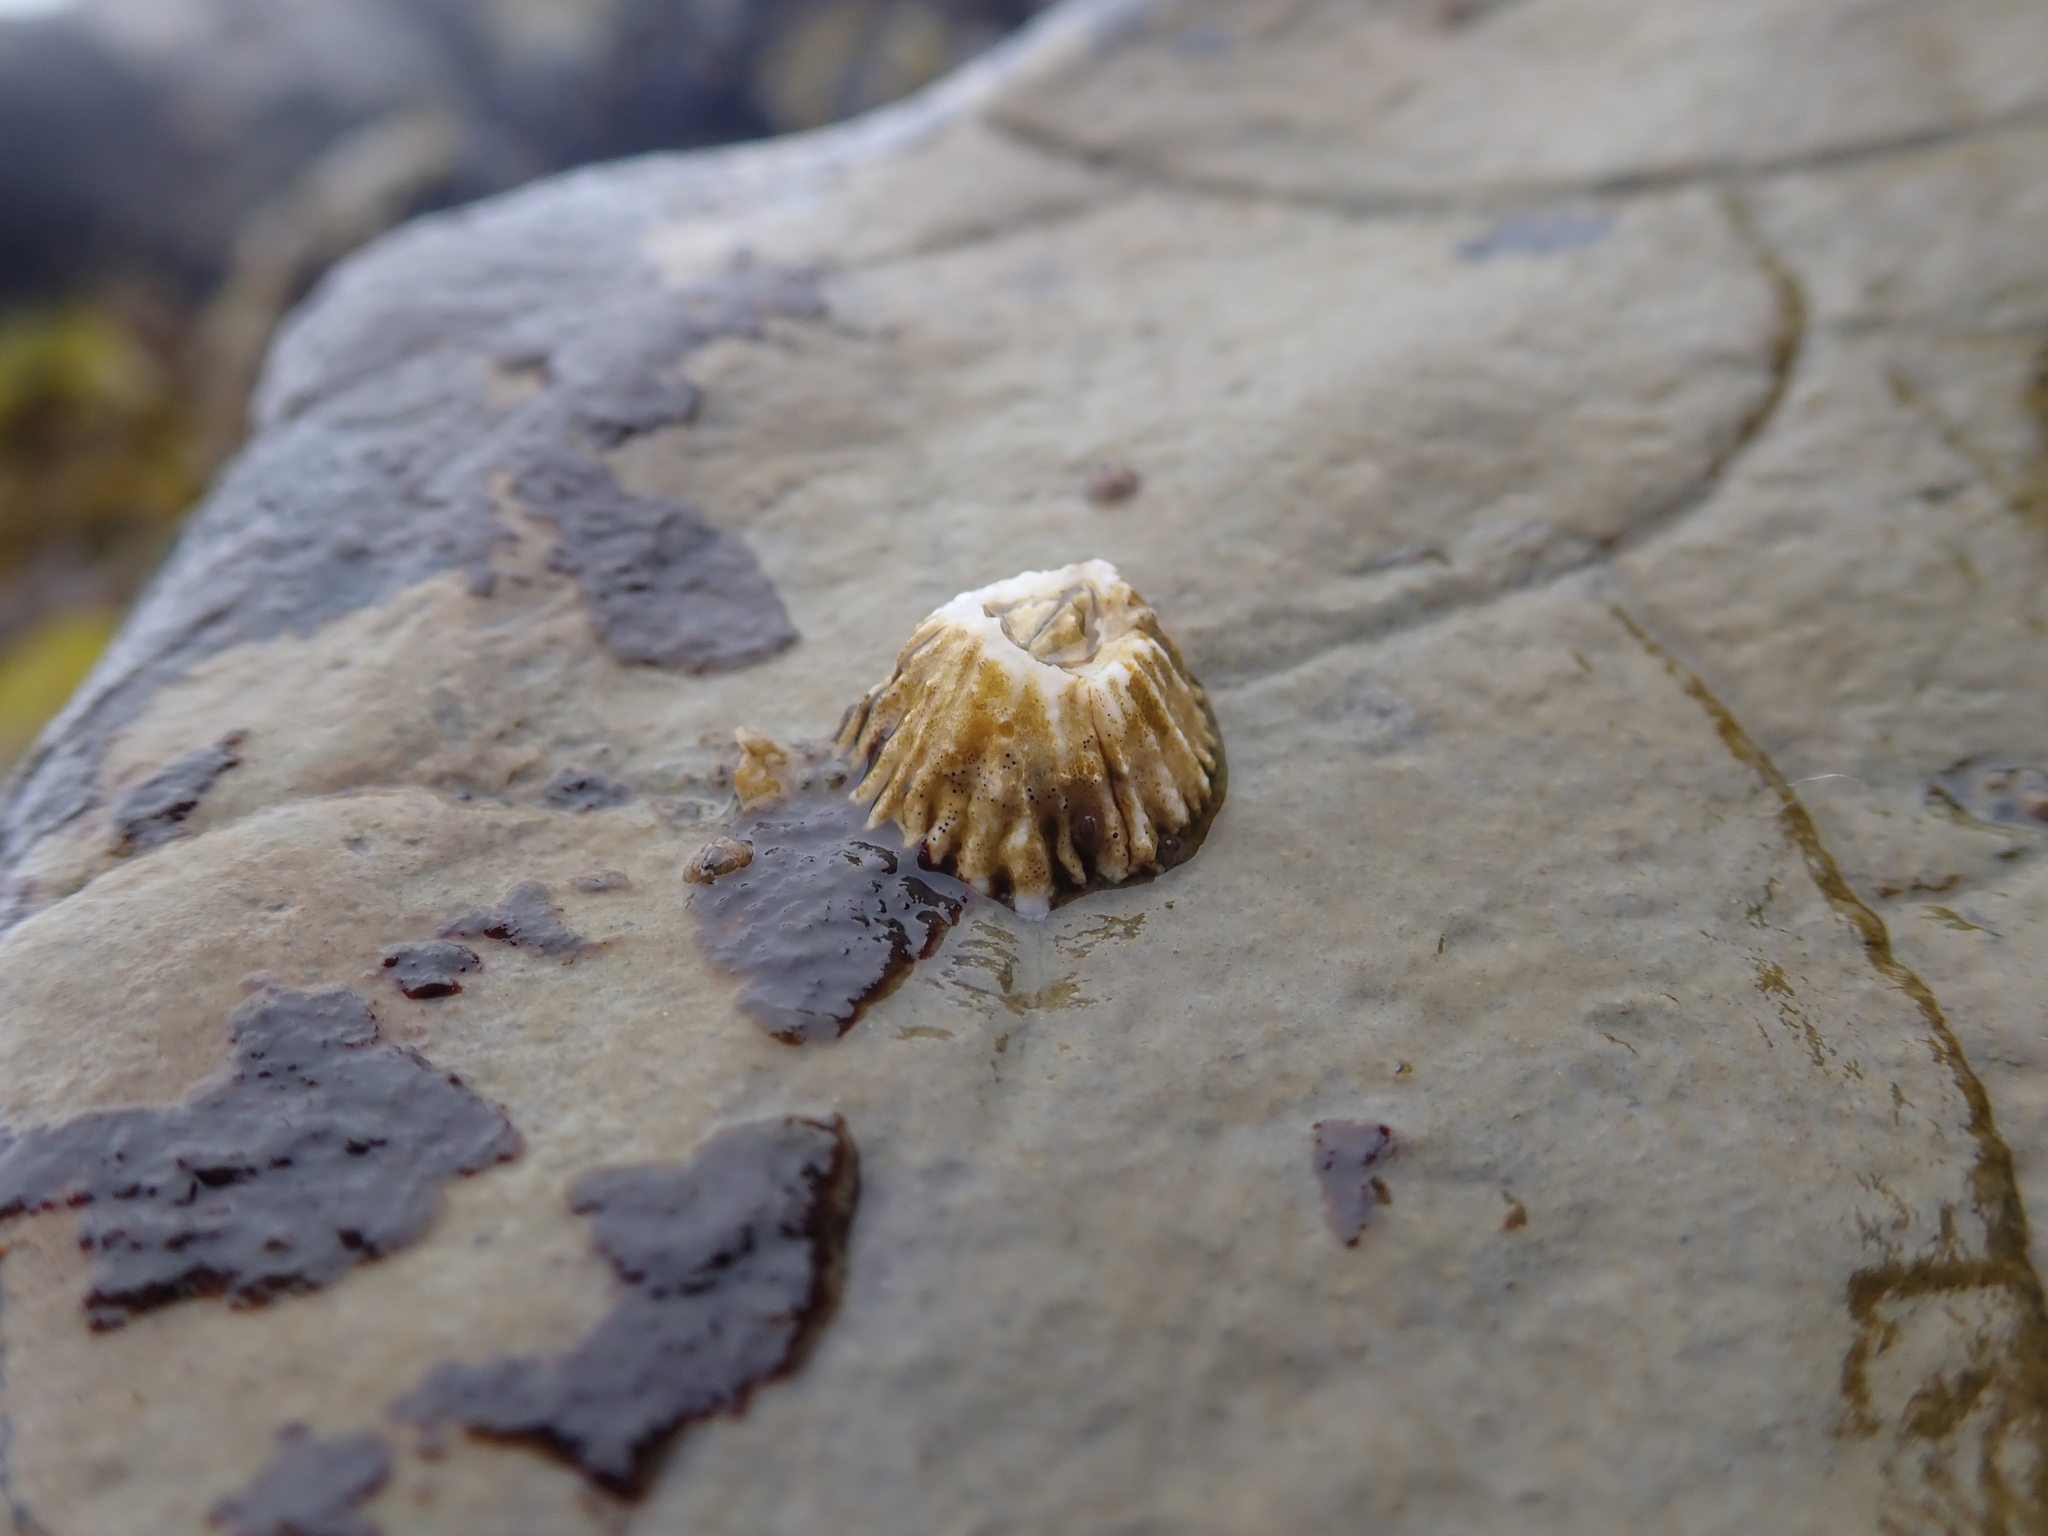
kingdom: Animalia
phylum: Arthropoda
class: Maxillopoda
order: Sessilia
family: Balanidae
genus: Balanus
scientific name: Balanus glandula
